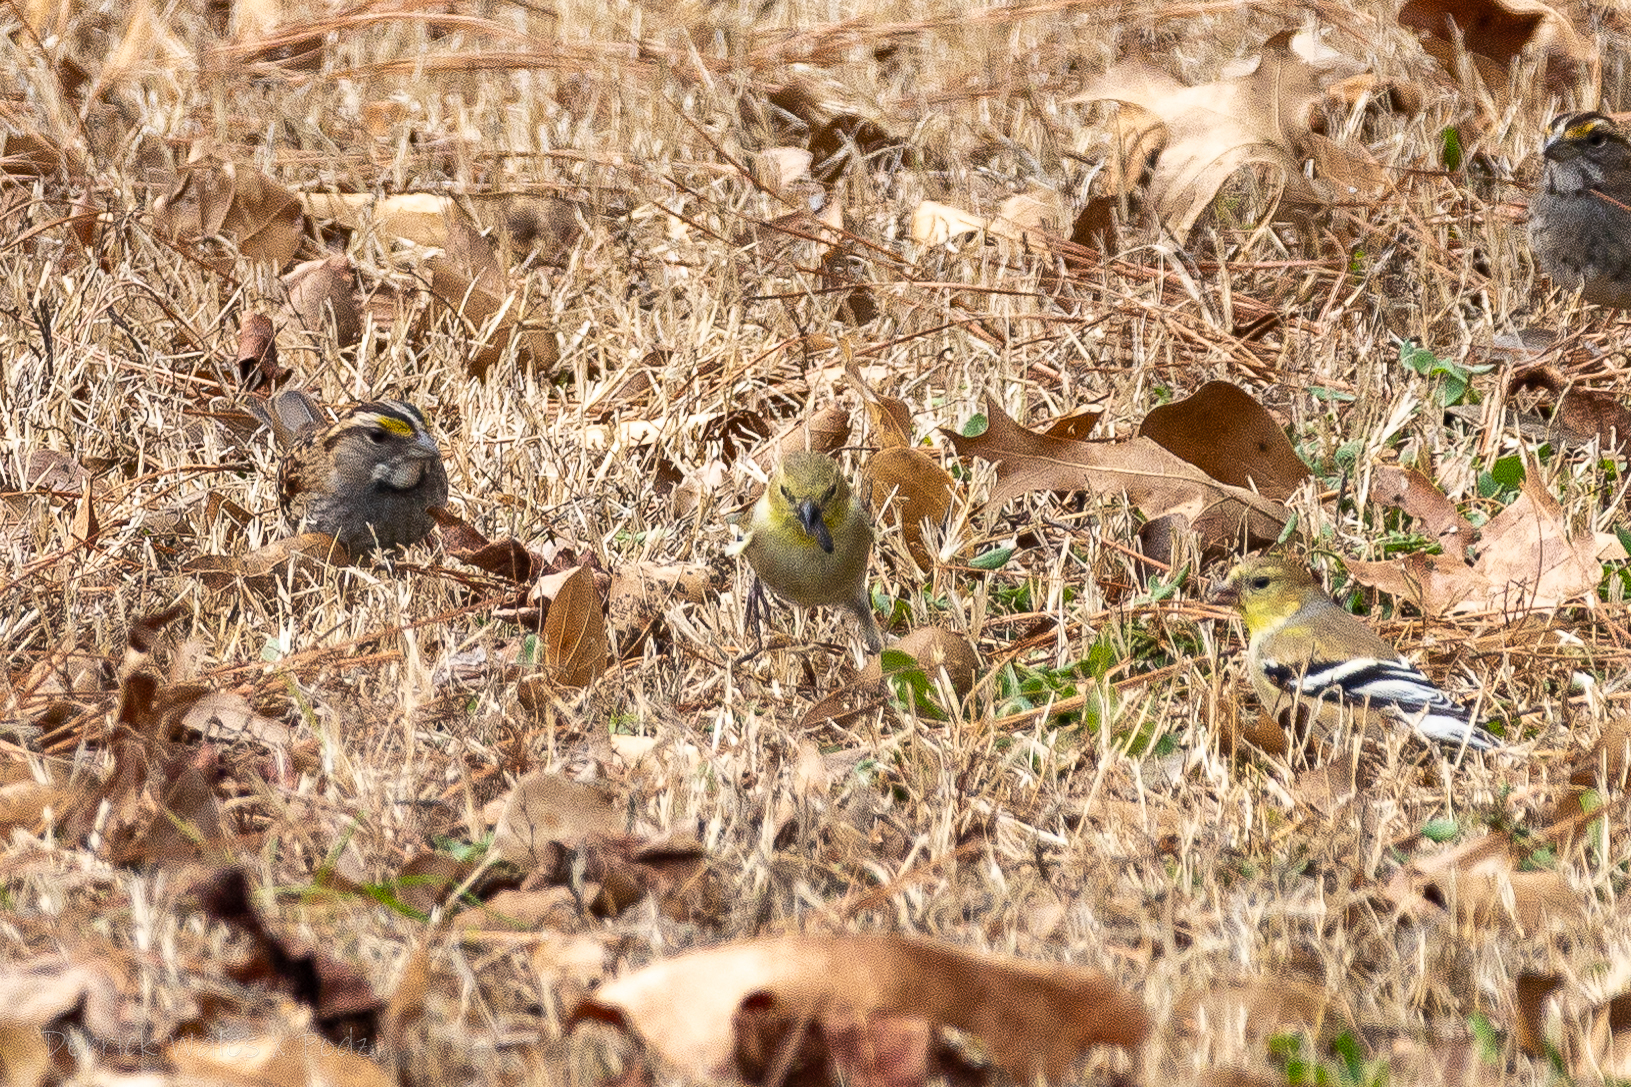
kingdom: Animalia
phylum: Chordata
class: Aves
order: Passeriformes
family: Fringillidae
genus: Spinus
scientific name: Spinus tristis
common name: American goldfinch
